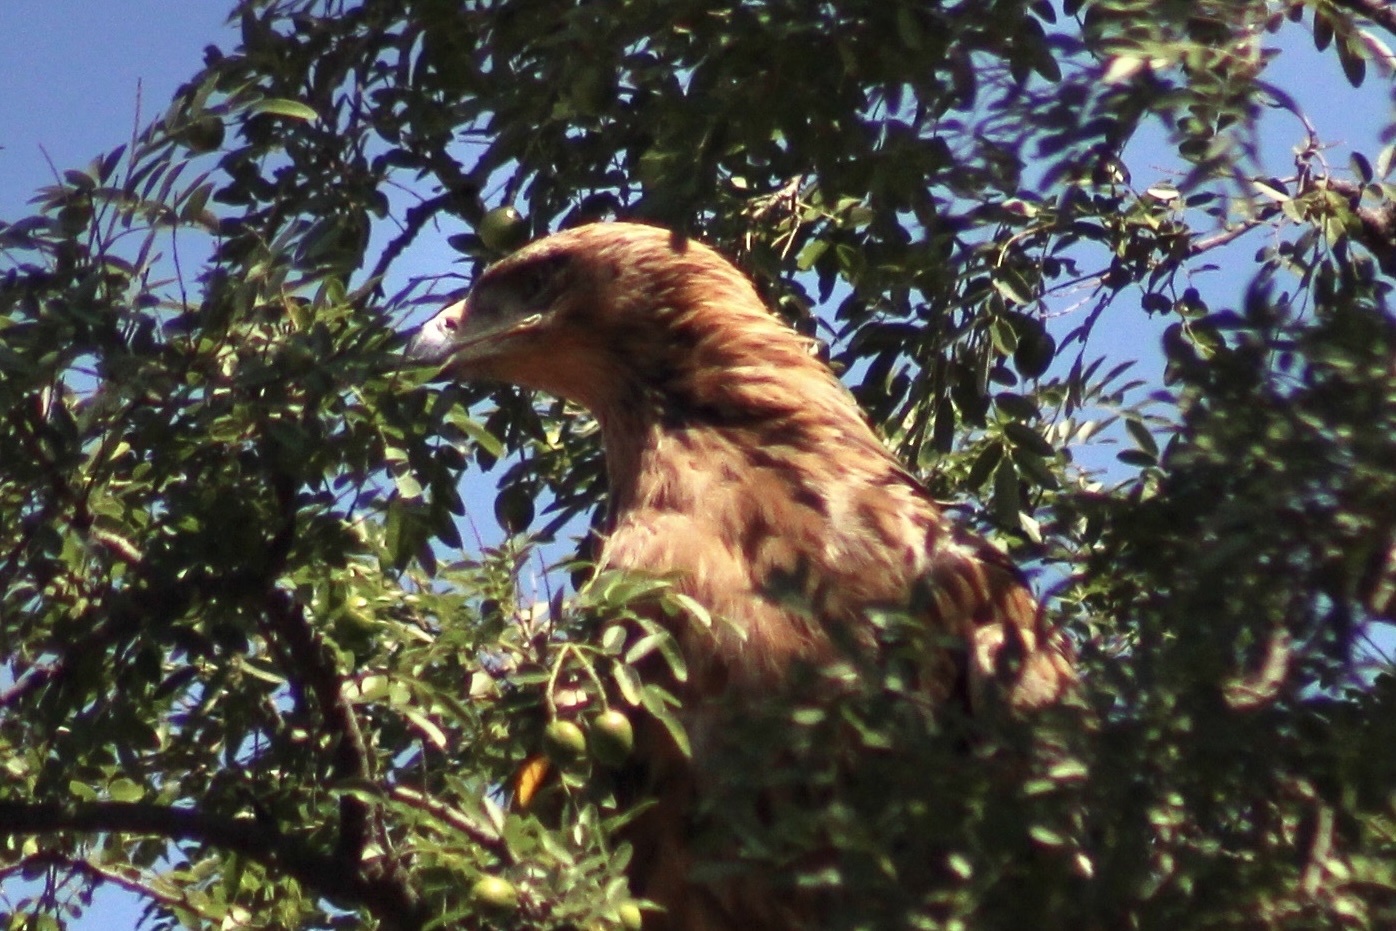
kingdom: Animalia
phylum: Chordata
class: Aves
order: Accipitriformes
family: Accipitridae
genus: Aquila
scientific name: Aquila rapax
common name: Tawny eagle
